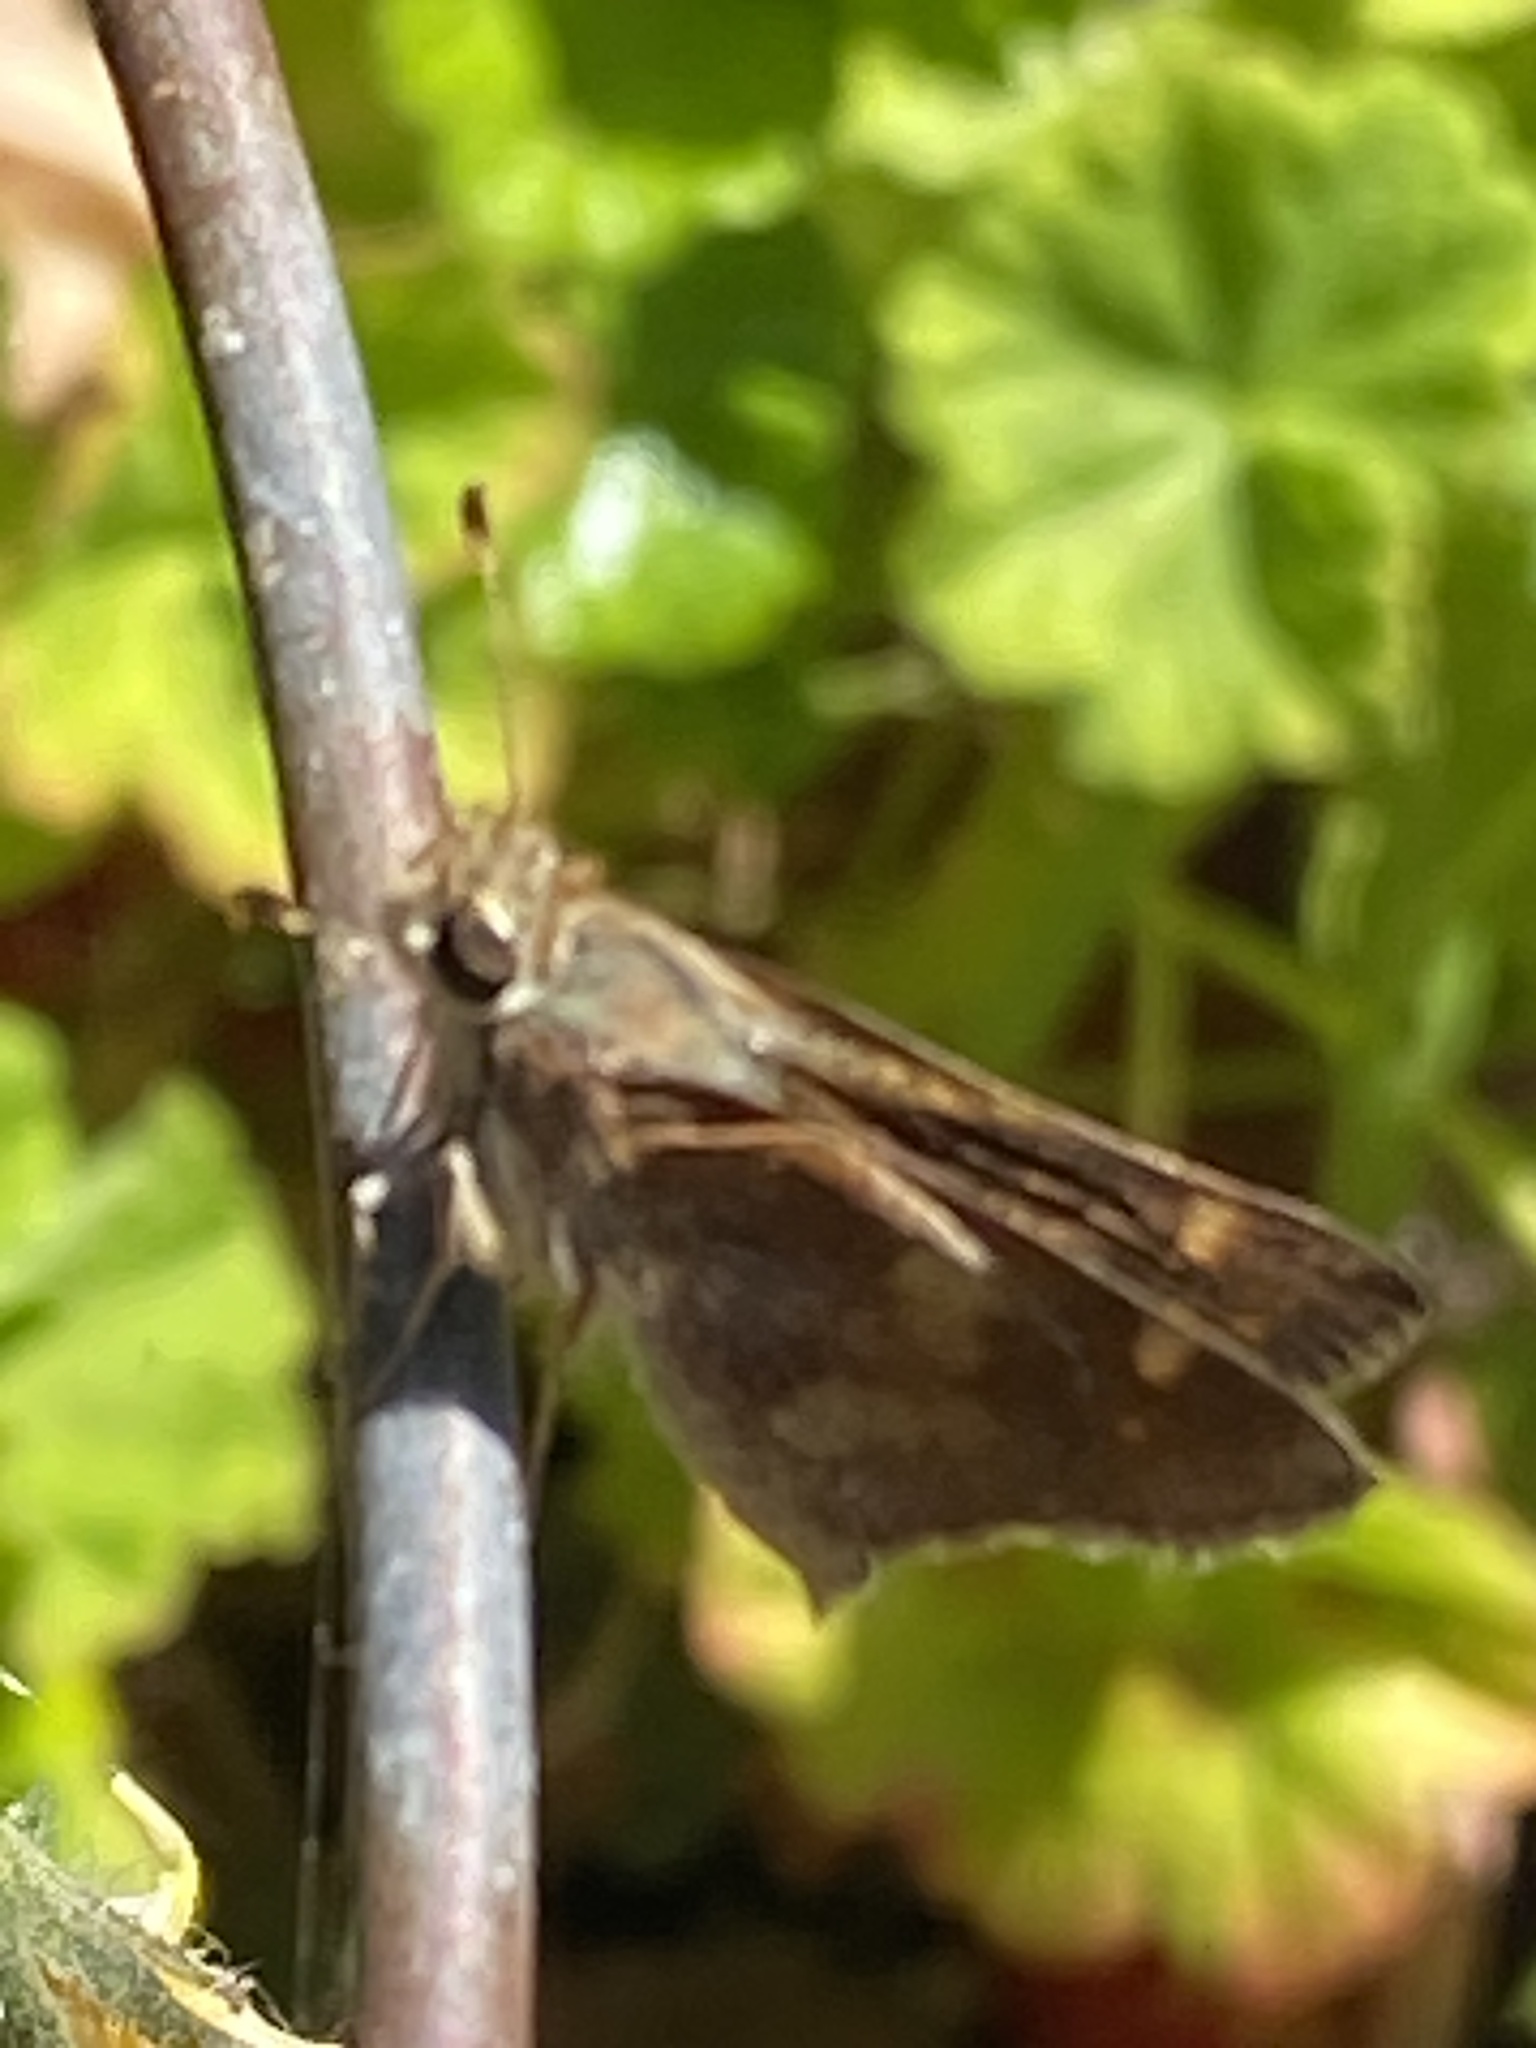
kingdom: Animalia
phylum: Arthropoda
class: Insecta
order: Lepidoptera
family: Hesperiidae
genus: Lon
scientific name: Lon melane
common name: Umber skipper
